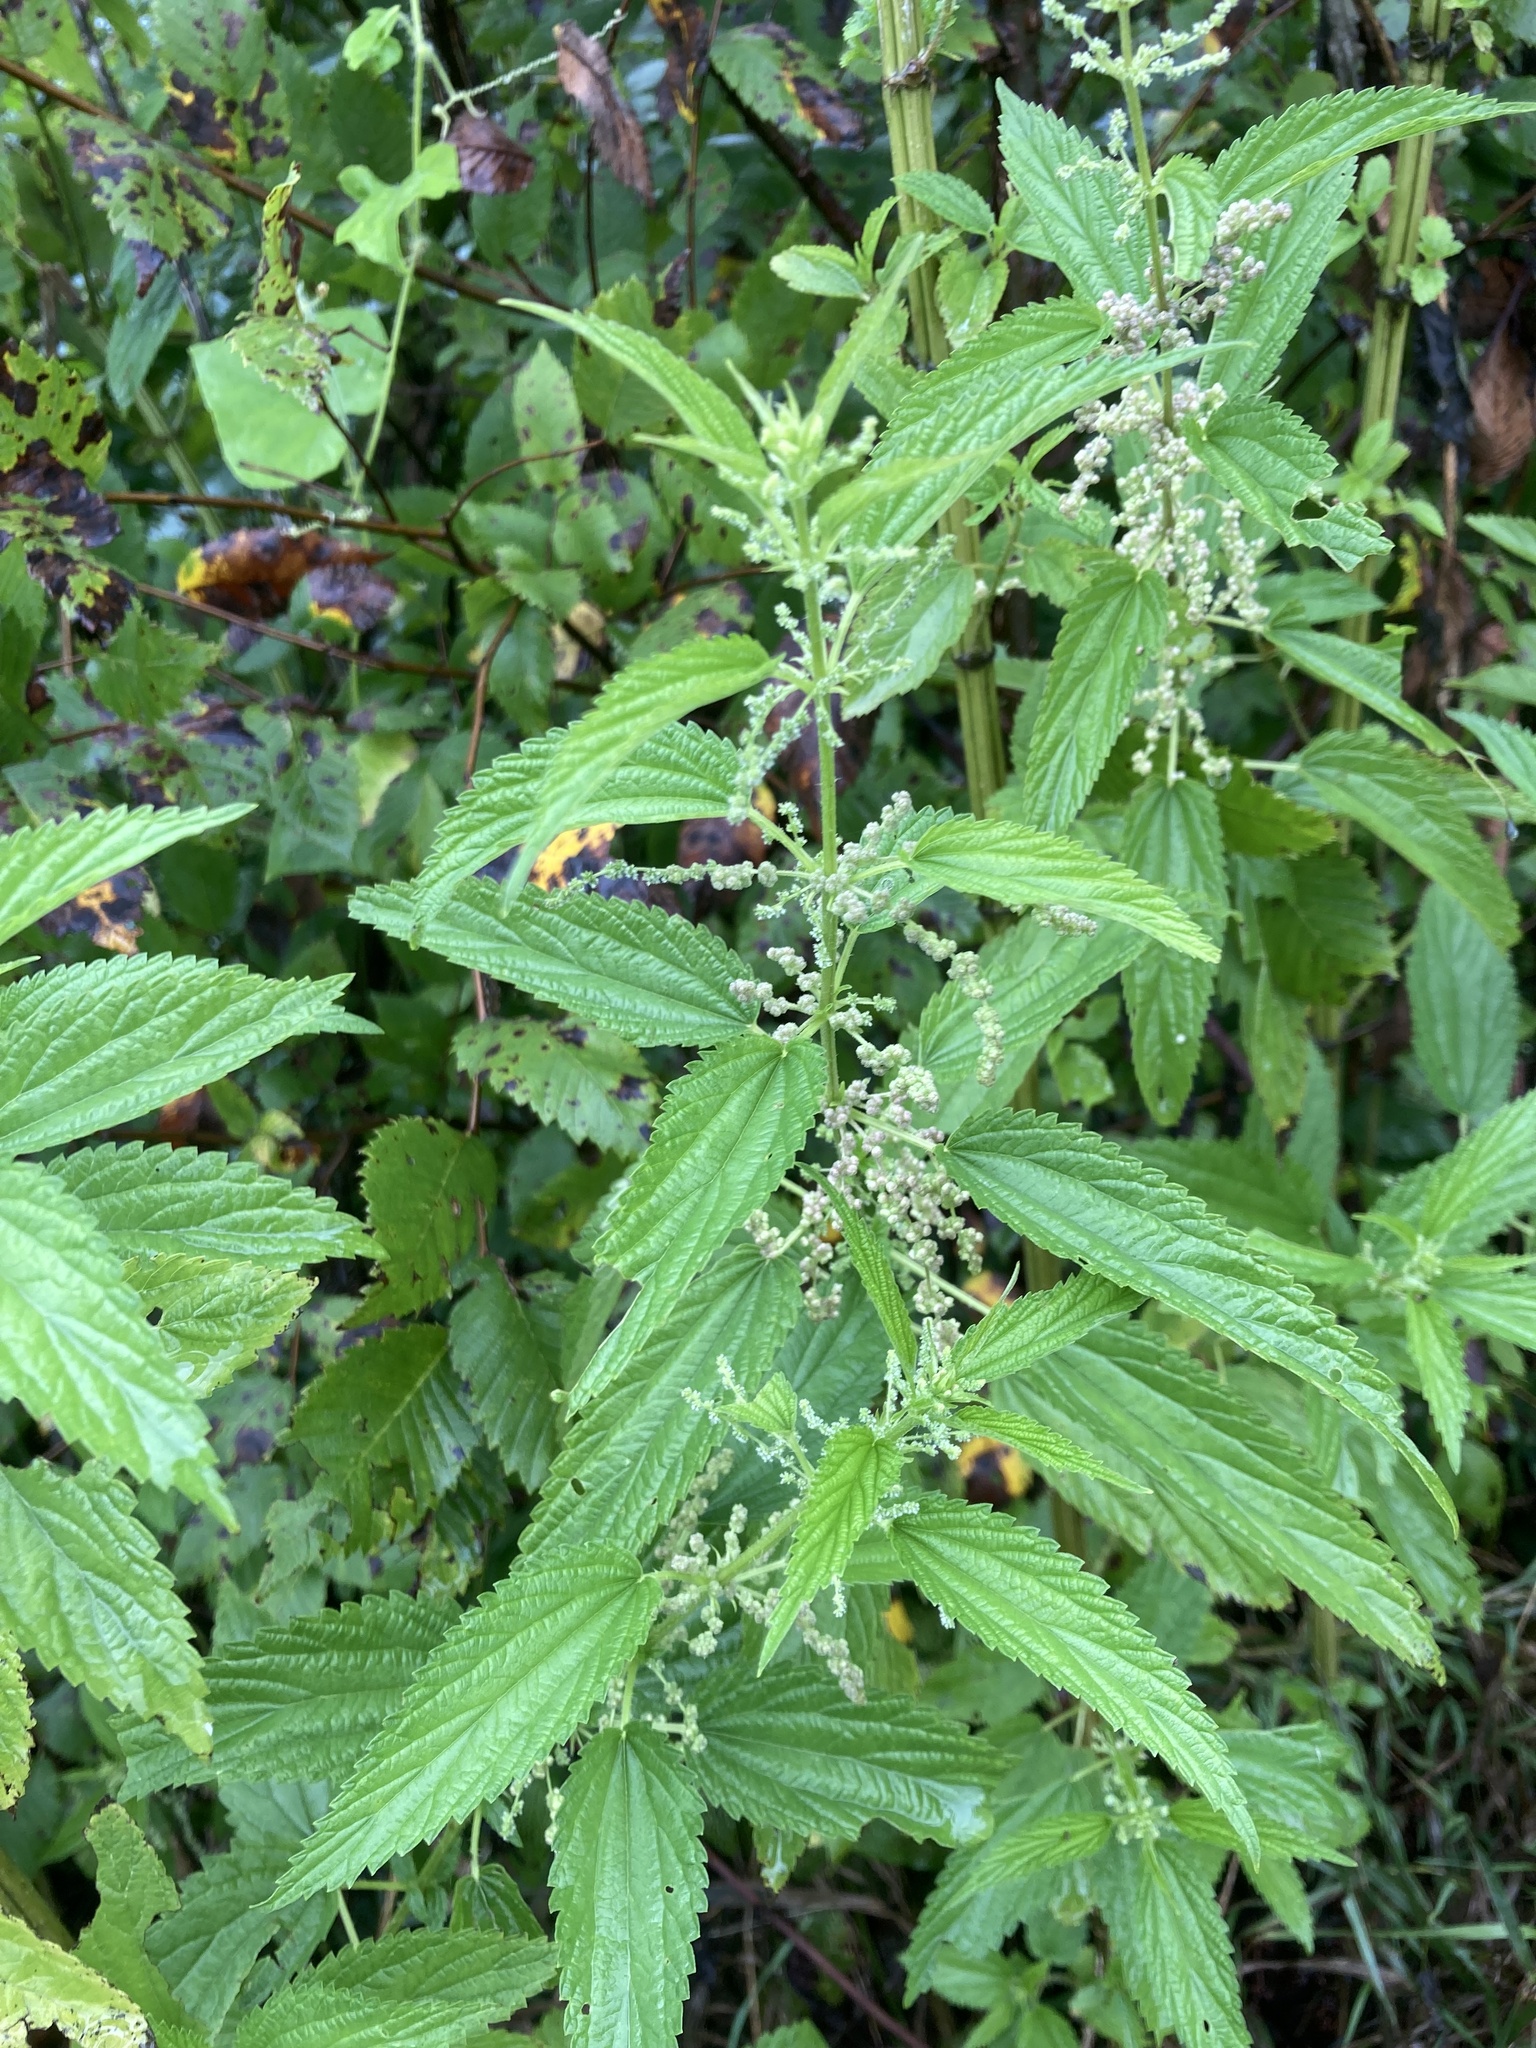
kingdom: Plantae
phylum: Tracheophyta
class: Magnoliopsida
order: Rosales
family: Urticaceae
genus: Urtica
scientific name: Urtica gracilis
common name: Slender stinging nettle
